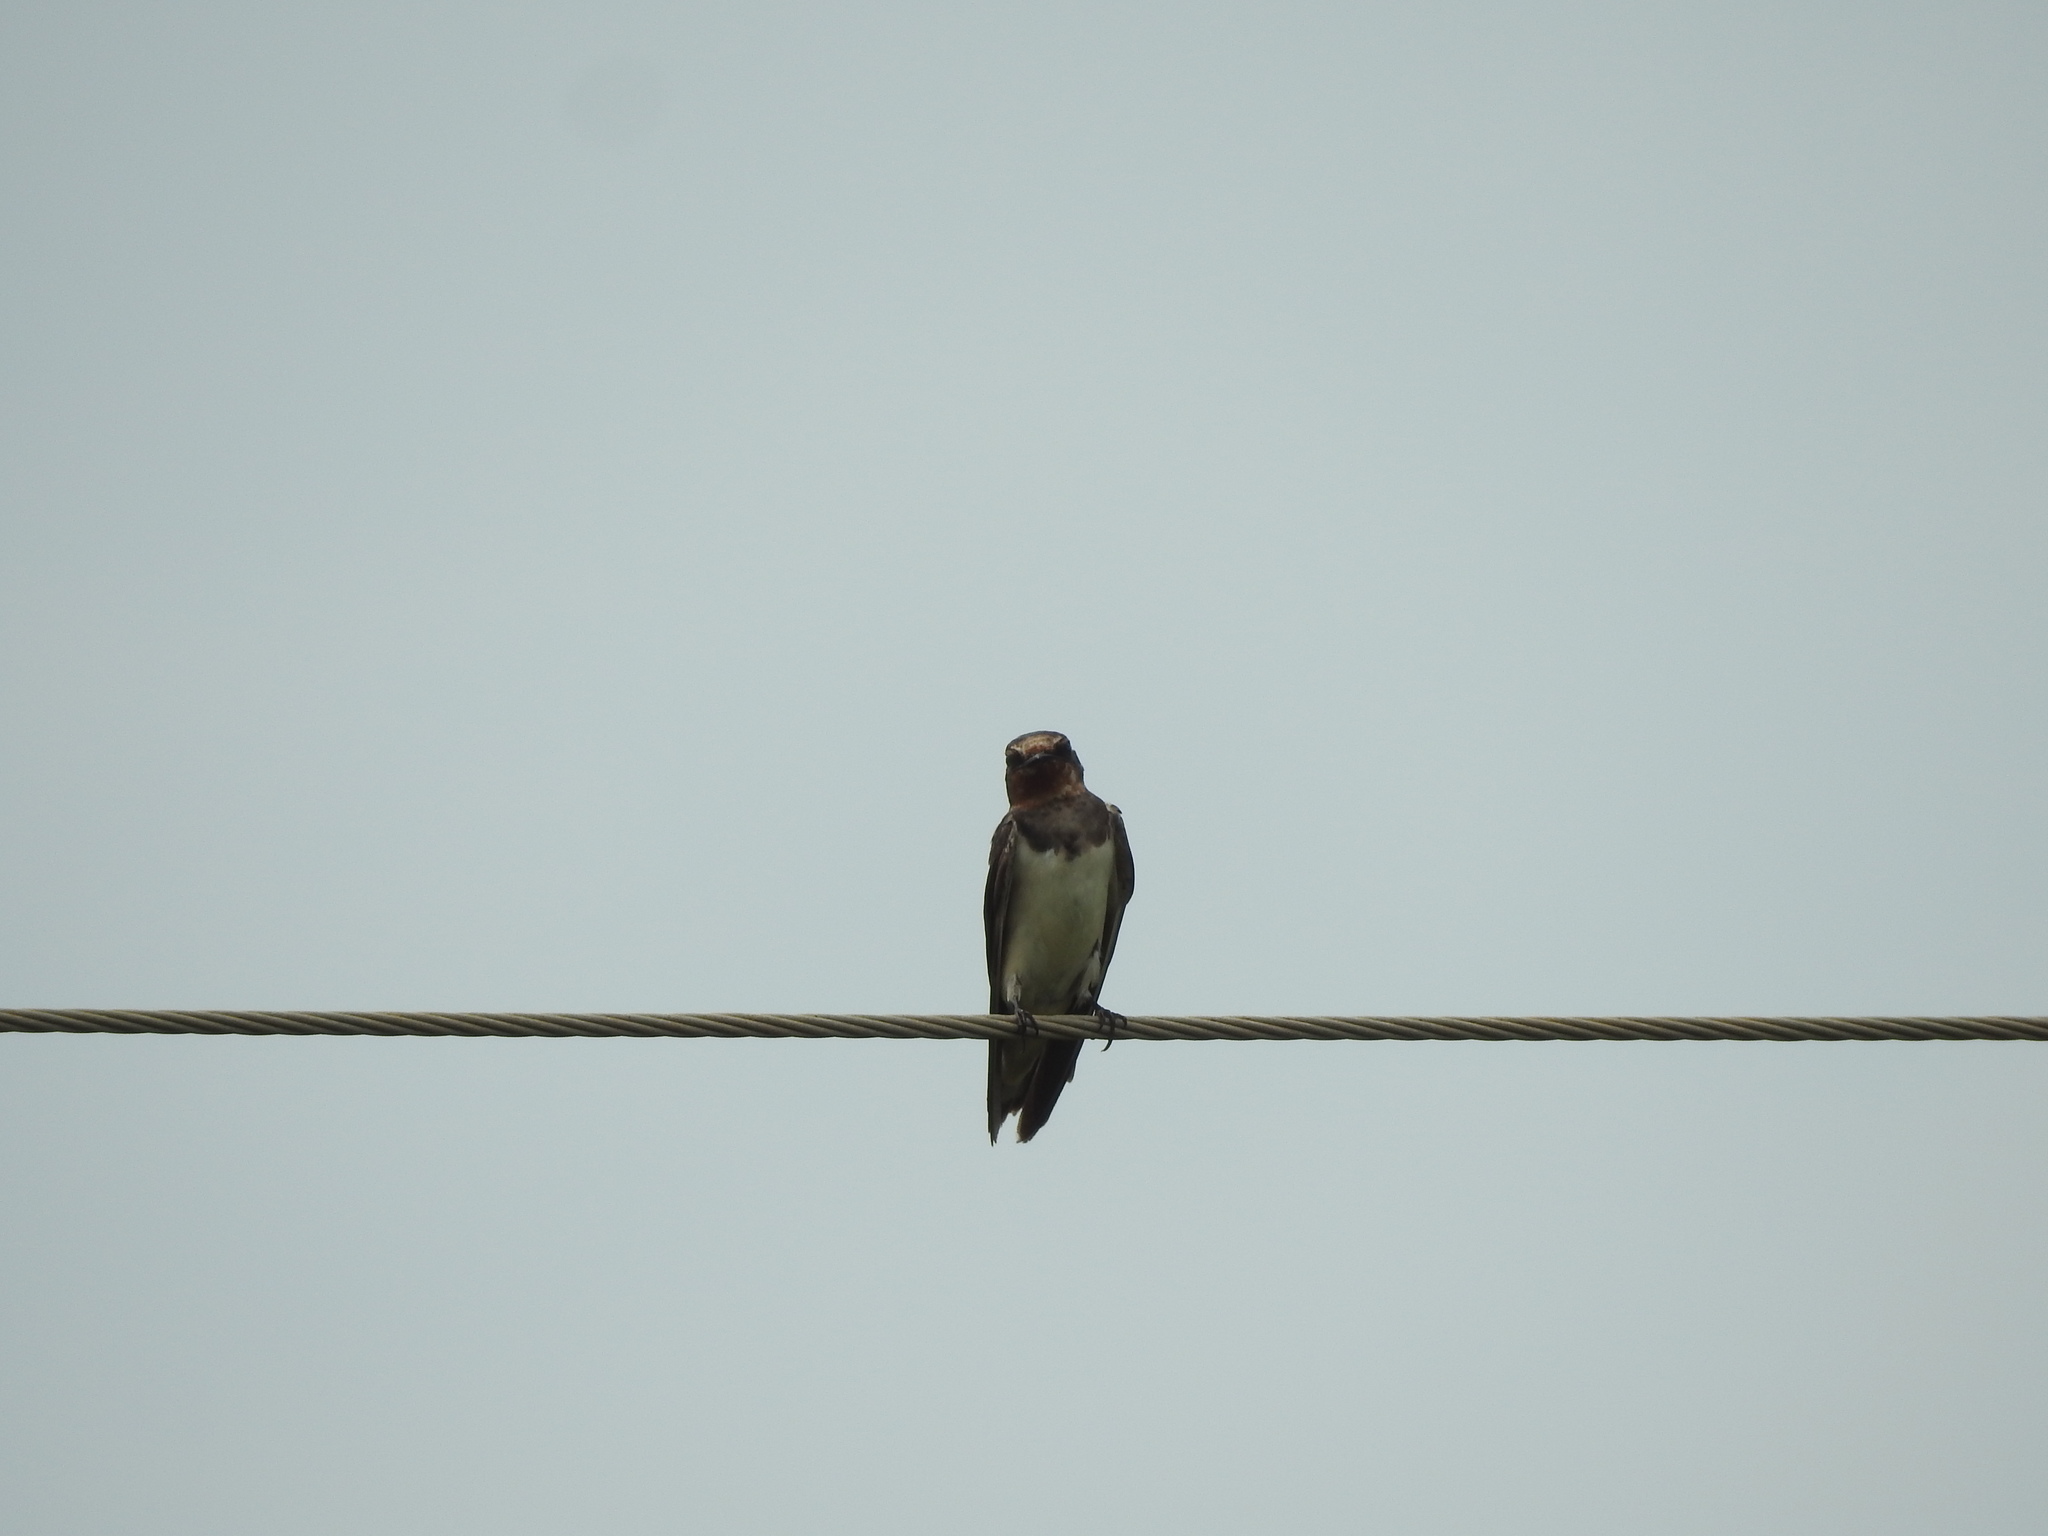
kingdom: Animalia
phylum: Chordata
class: Aves
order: Passeriformes
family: Hirundinidae
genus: Hirundo
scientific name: Hirundo rustica
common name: Barn swallow
